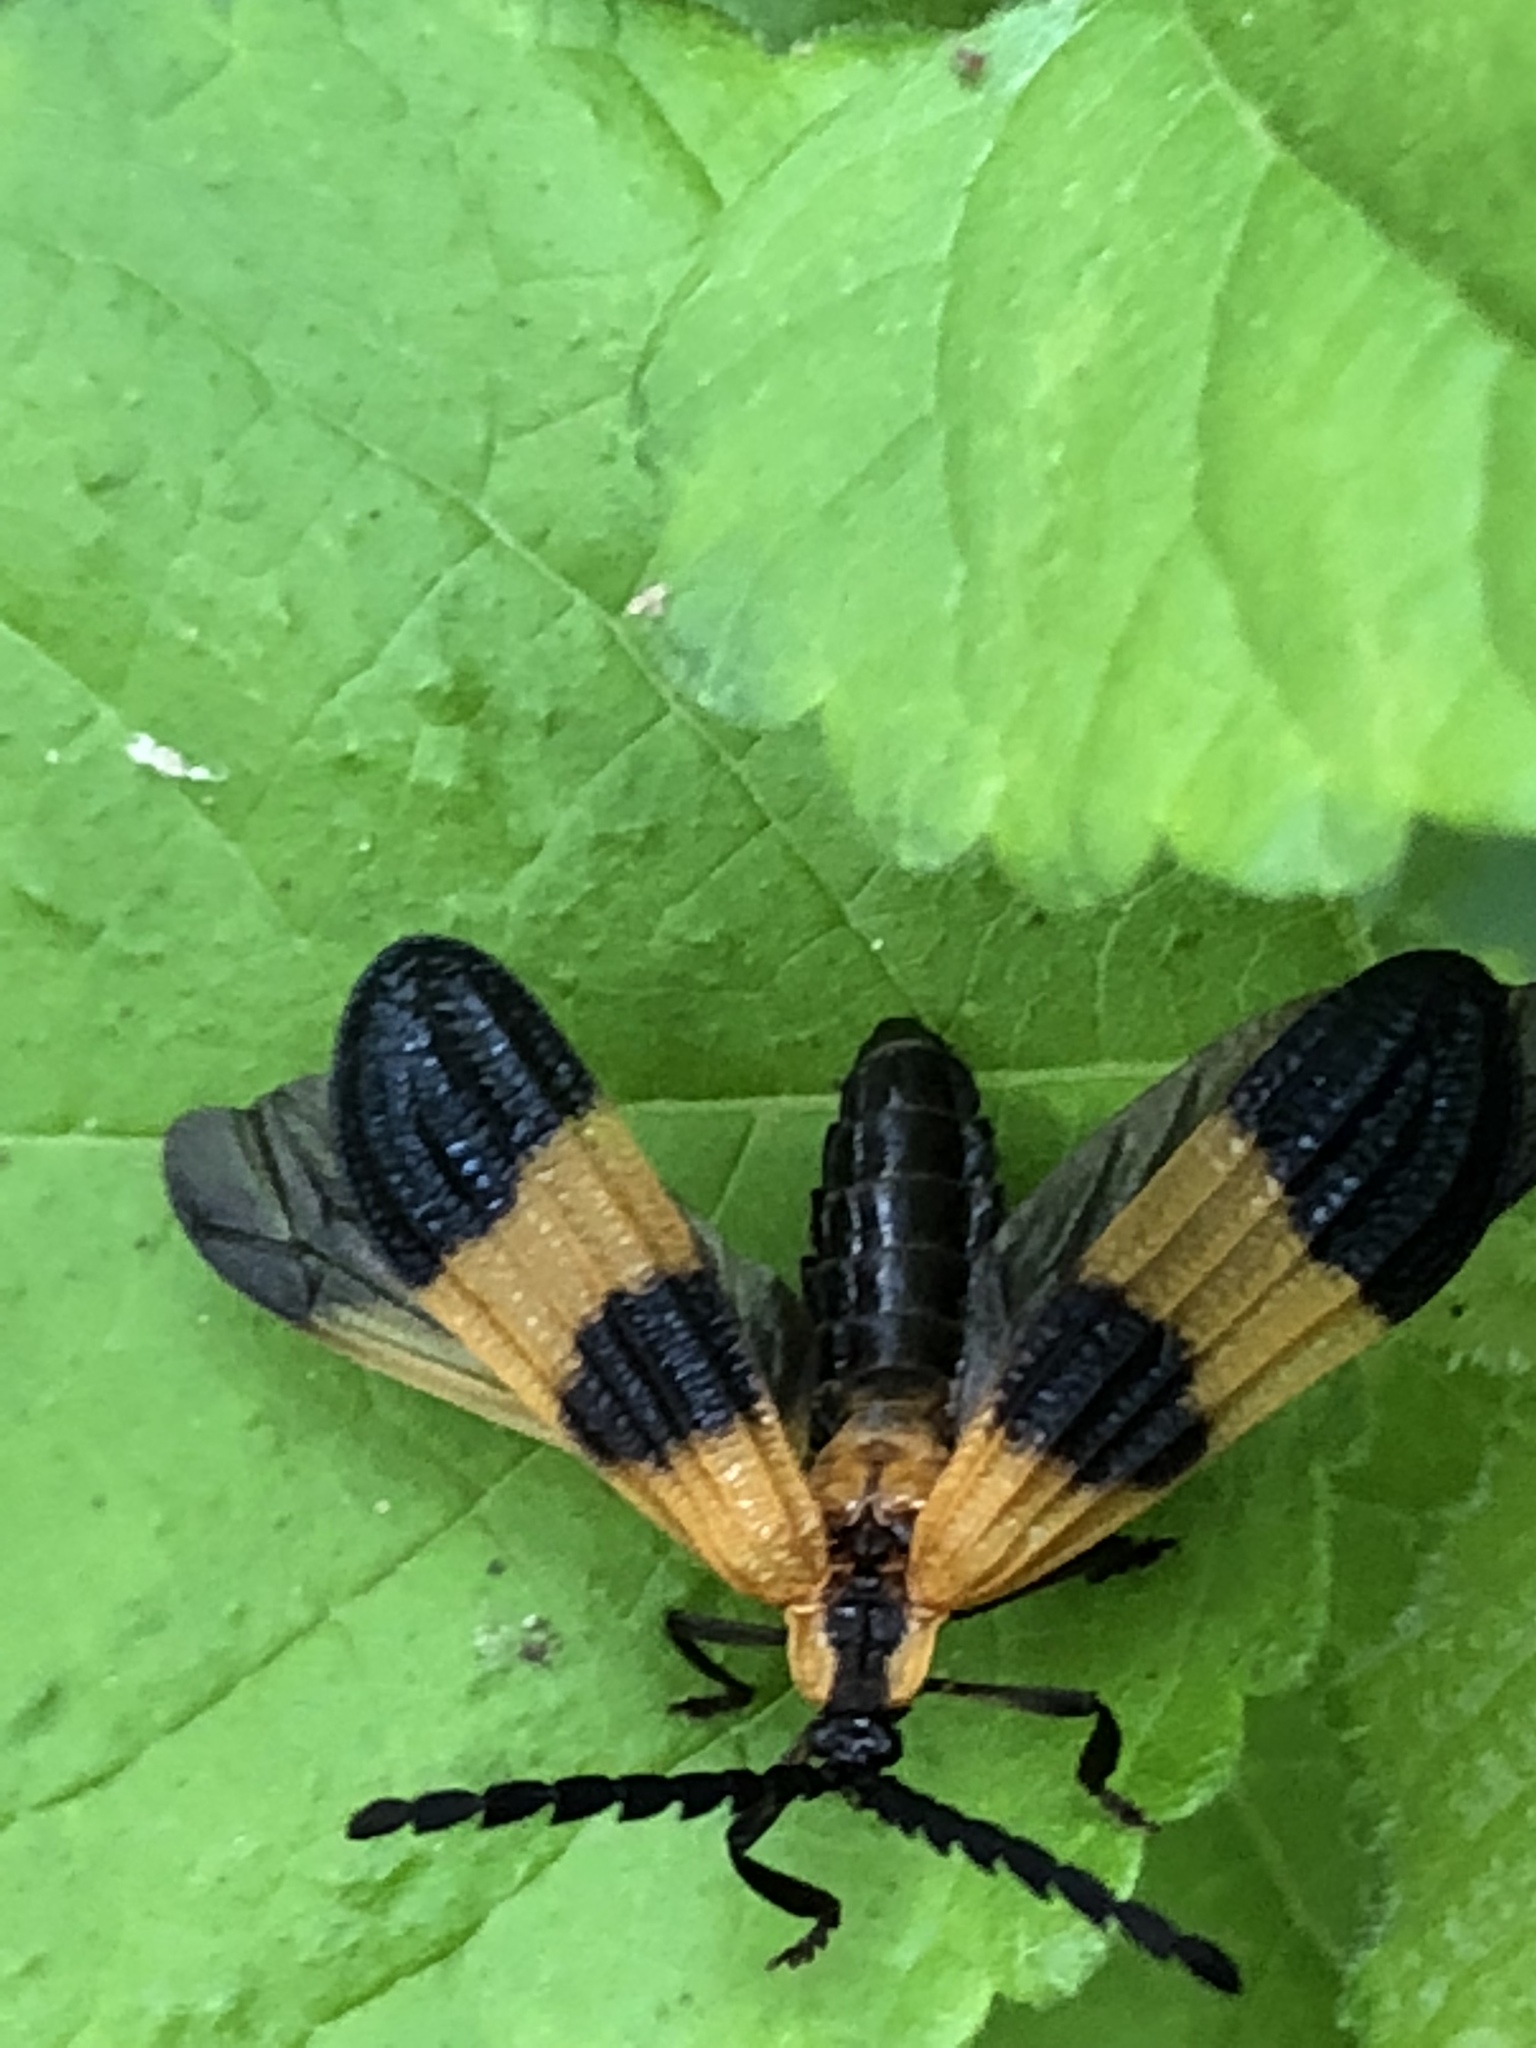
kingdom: Animalia
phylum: Arthropoda
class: Insecta
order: Coleoptera
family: Lycidae
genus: Calopteron
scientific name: Calopteron terminale
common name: End band net-winged beetle
